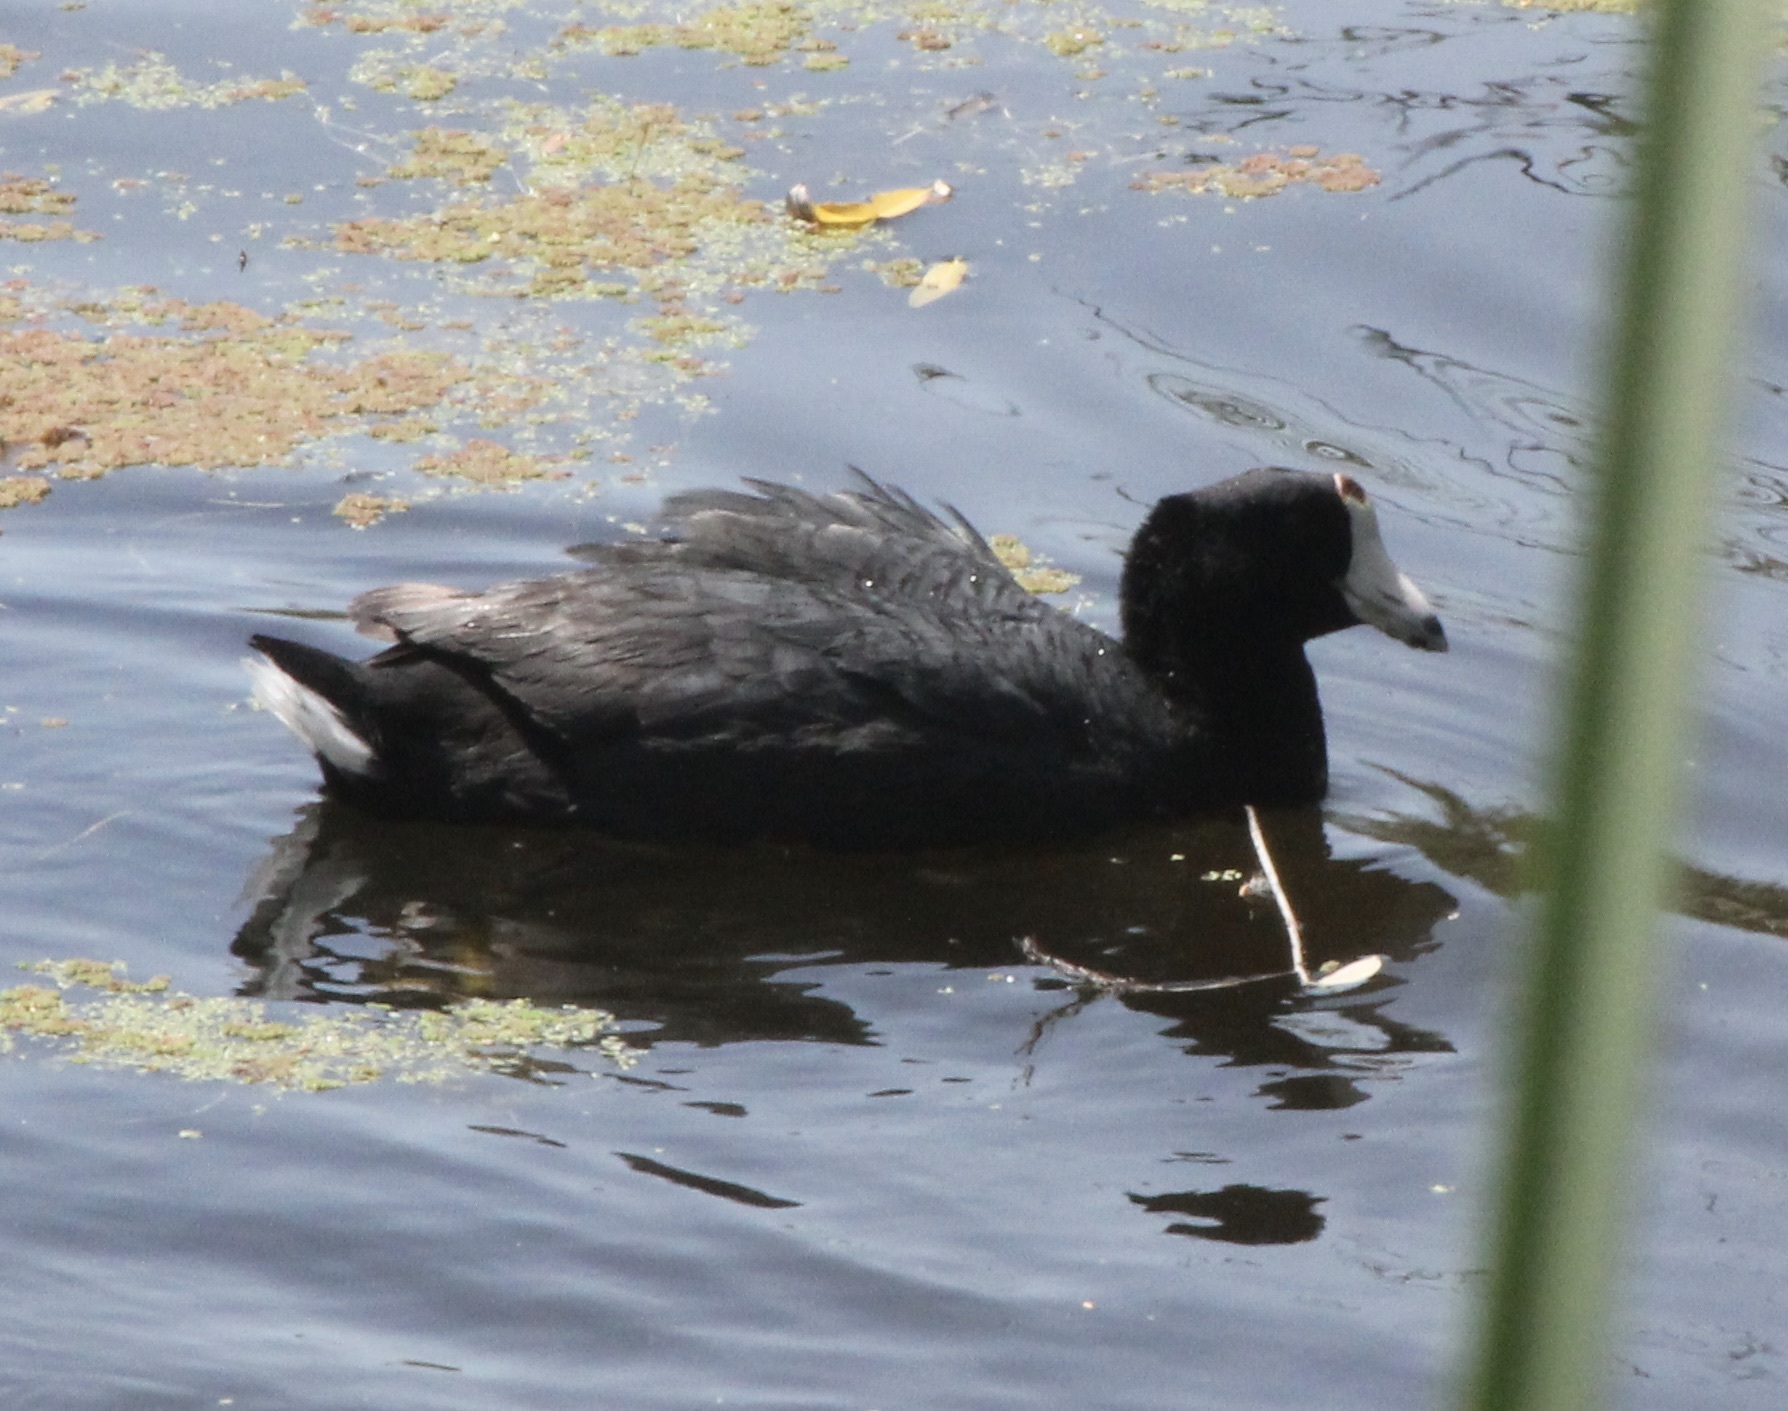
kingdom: Animalia
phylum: Chordata
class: Aves
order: Gruiformes
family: Rallidae
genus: Fulica
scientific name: Fulica americana
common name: American coot
